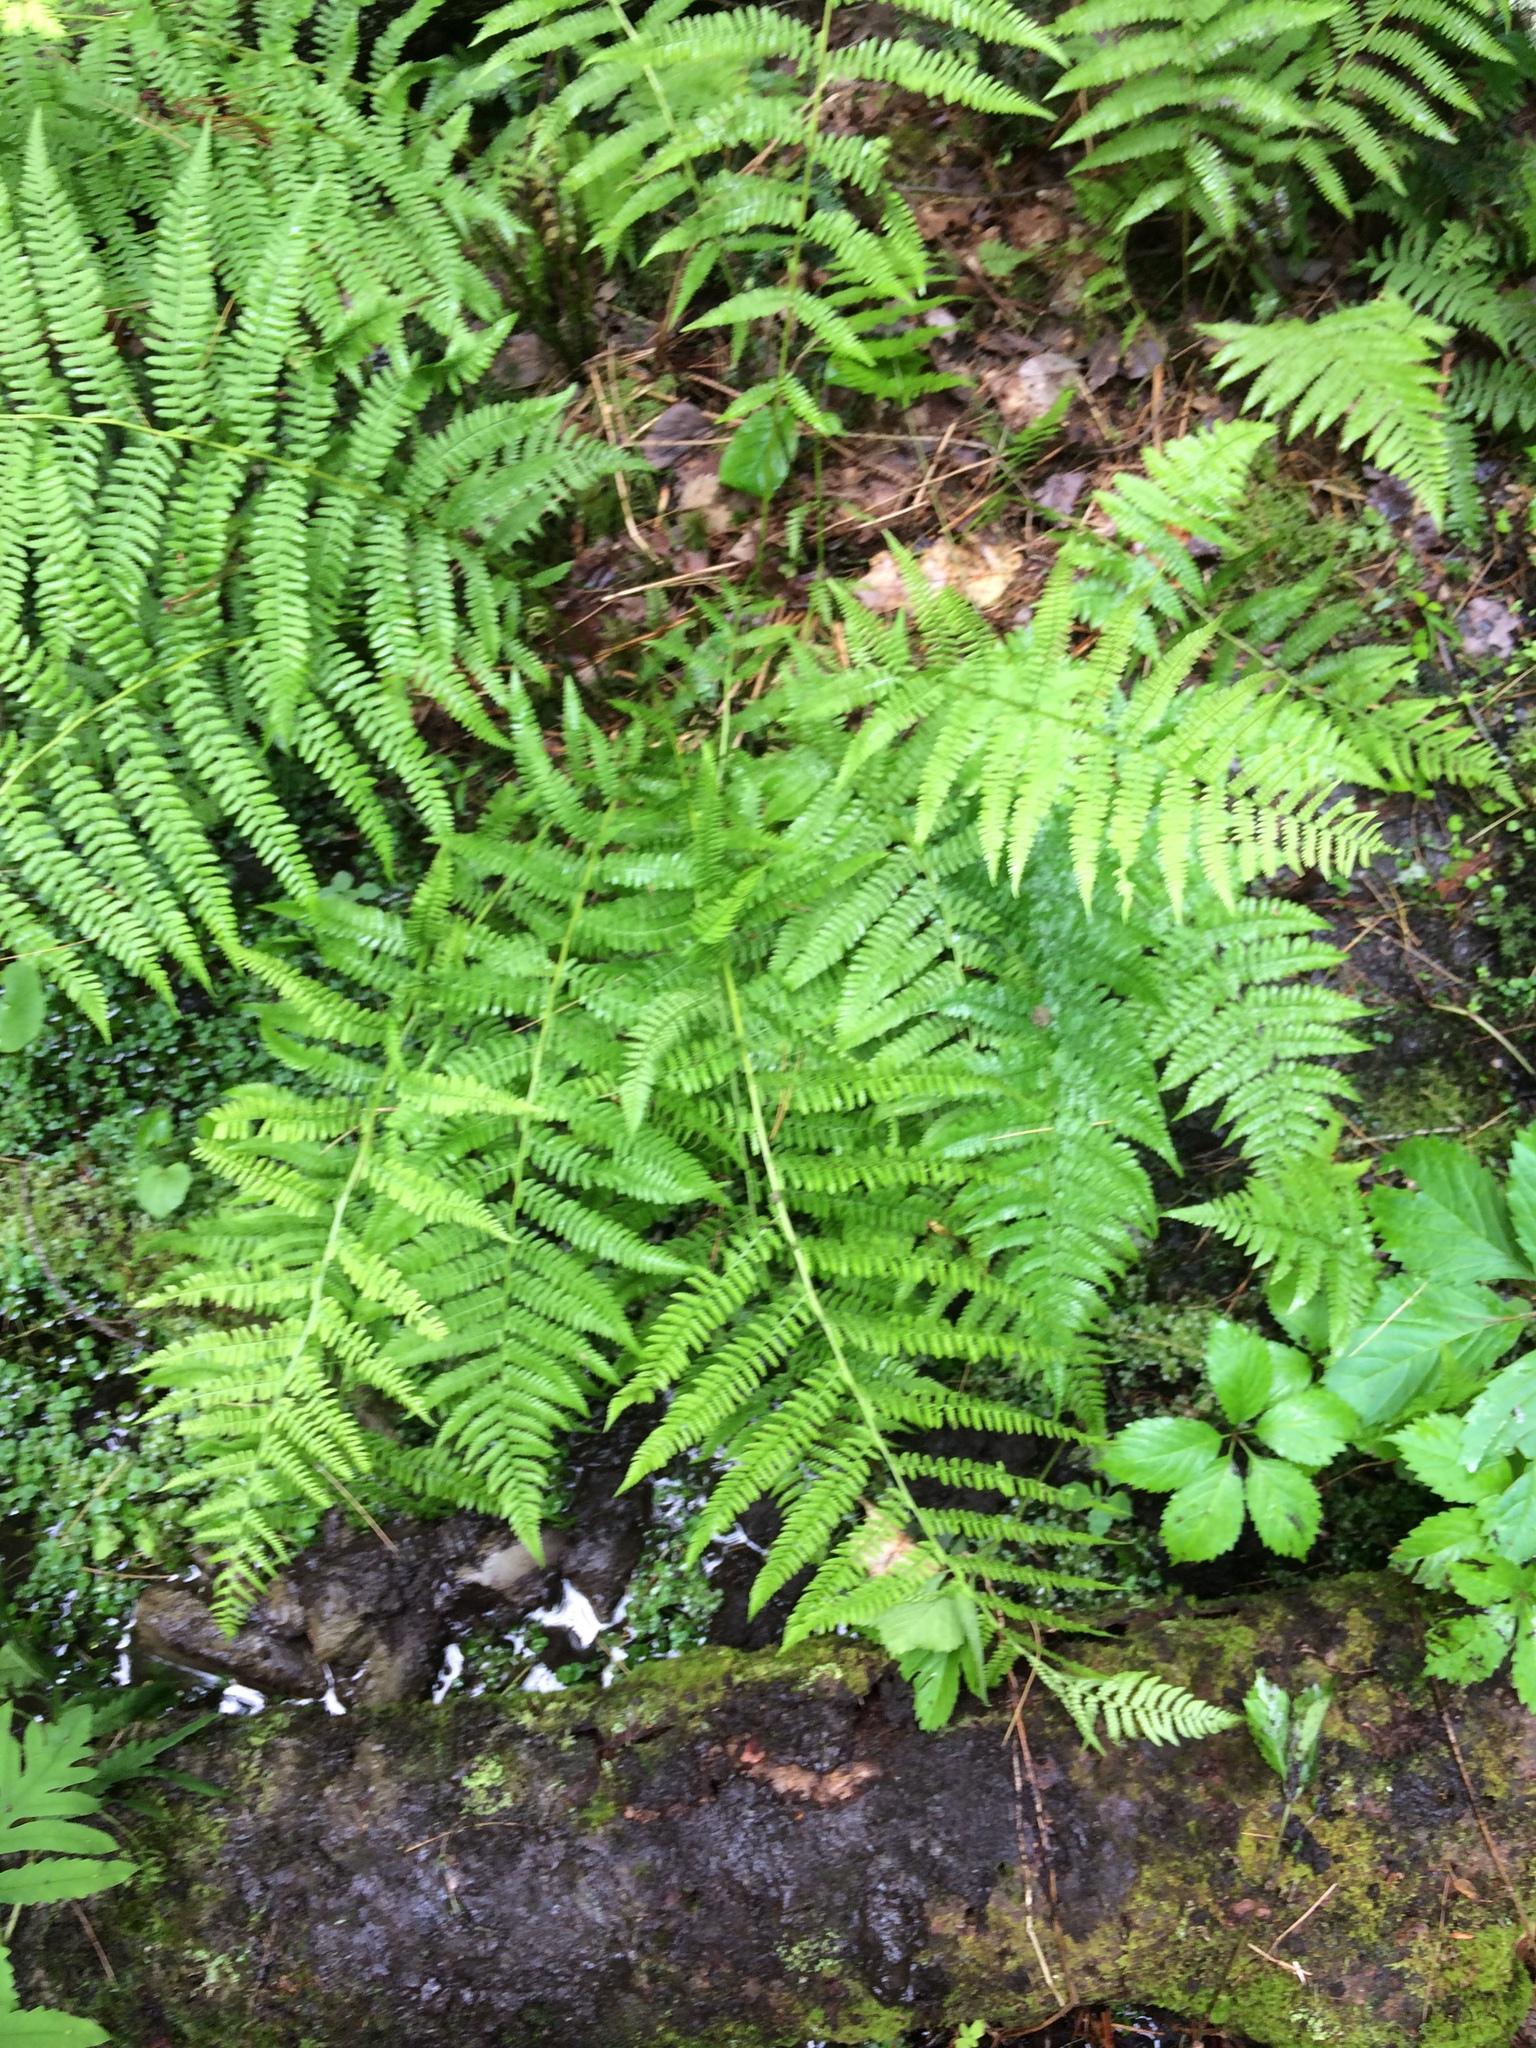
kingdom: Plantae
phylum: Tracheophyta
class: Polypodiopsida
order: Polypodiales
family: Athyriaceae
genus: Athyrium
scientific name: Athyrium angustum
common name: Northern lady fern
